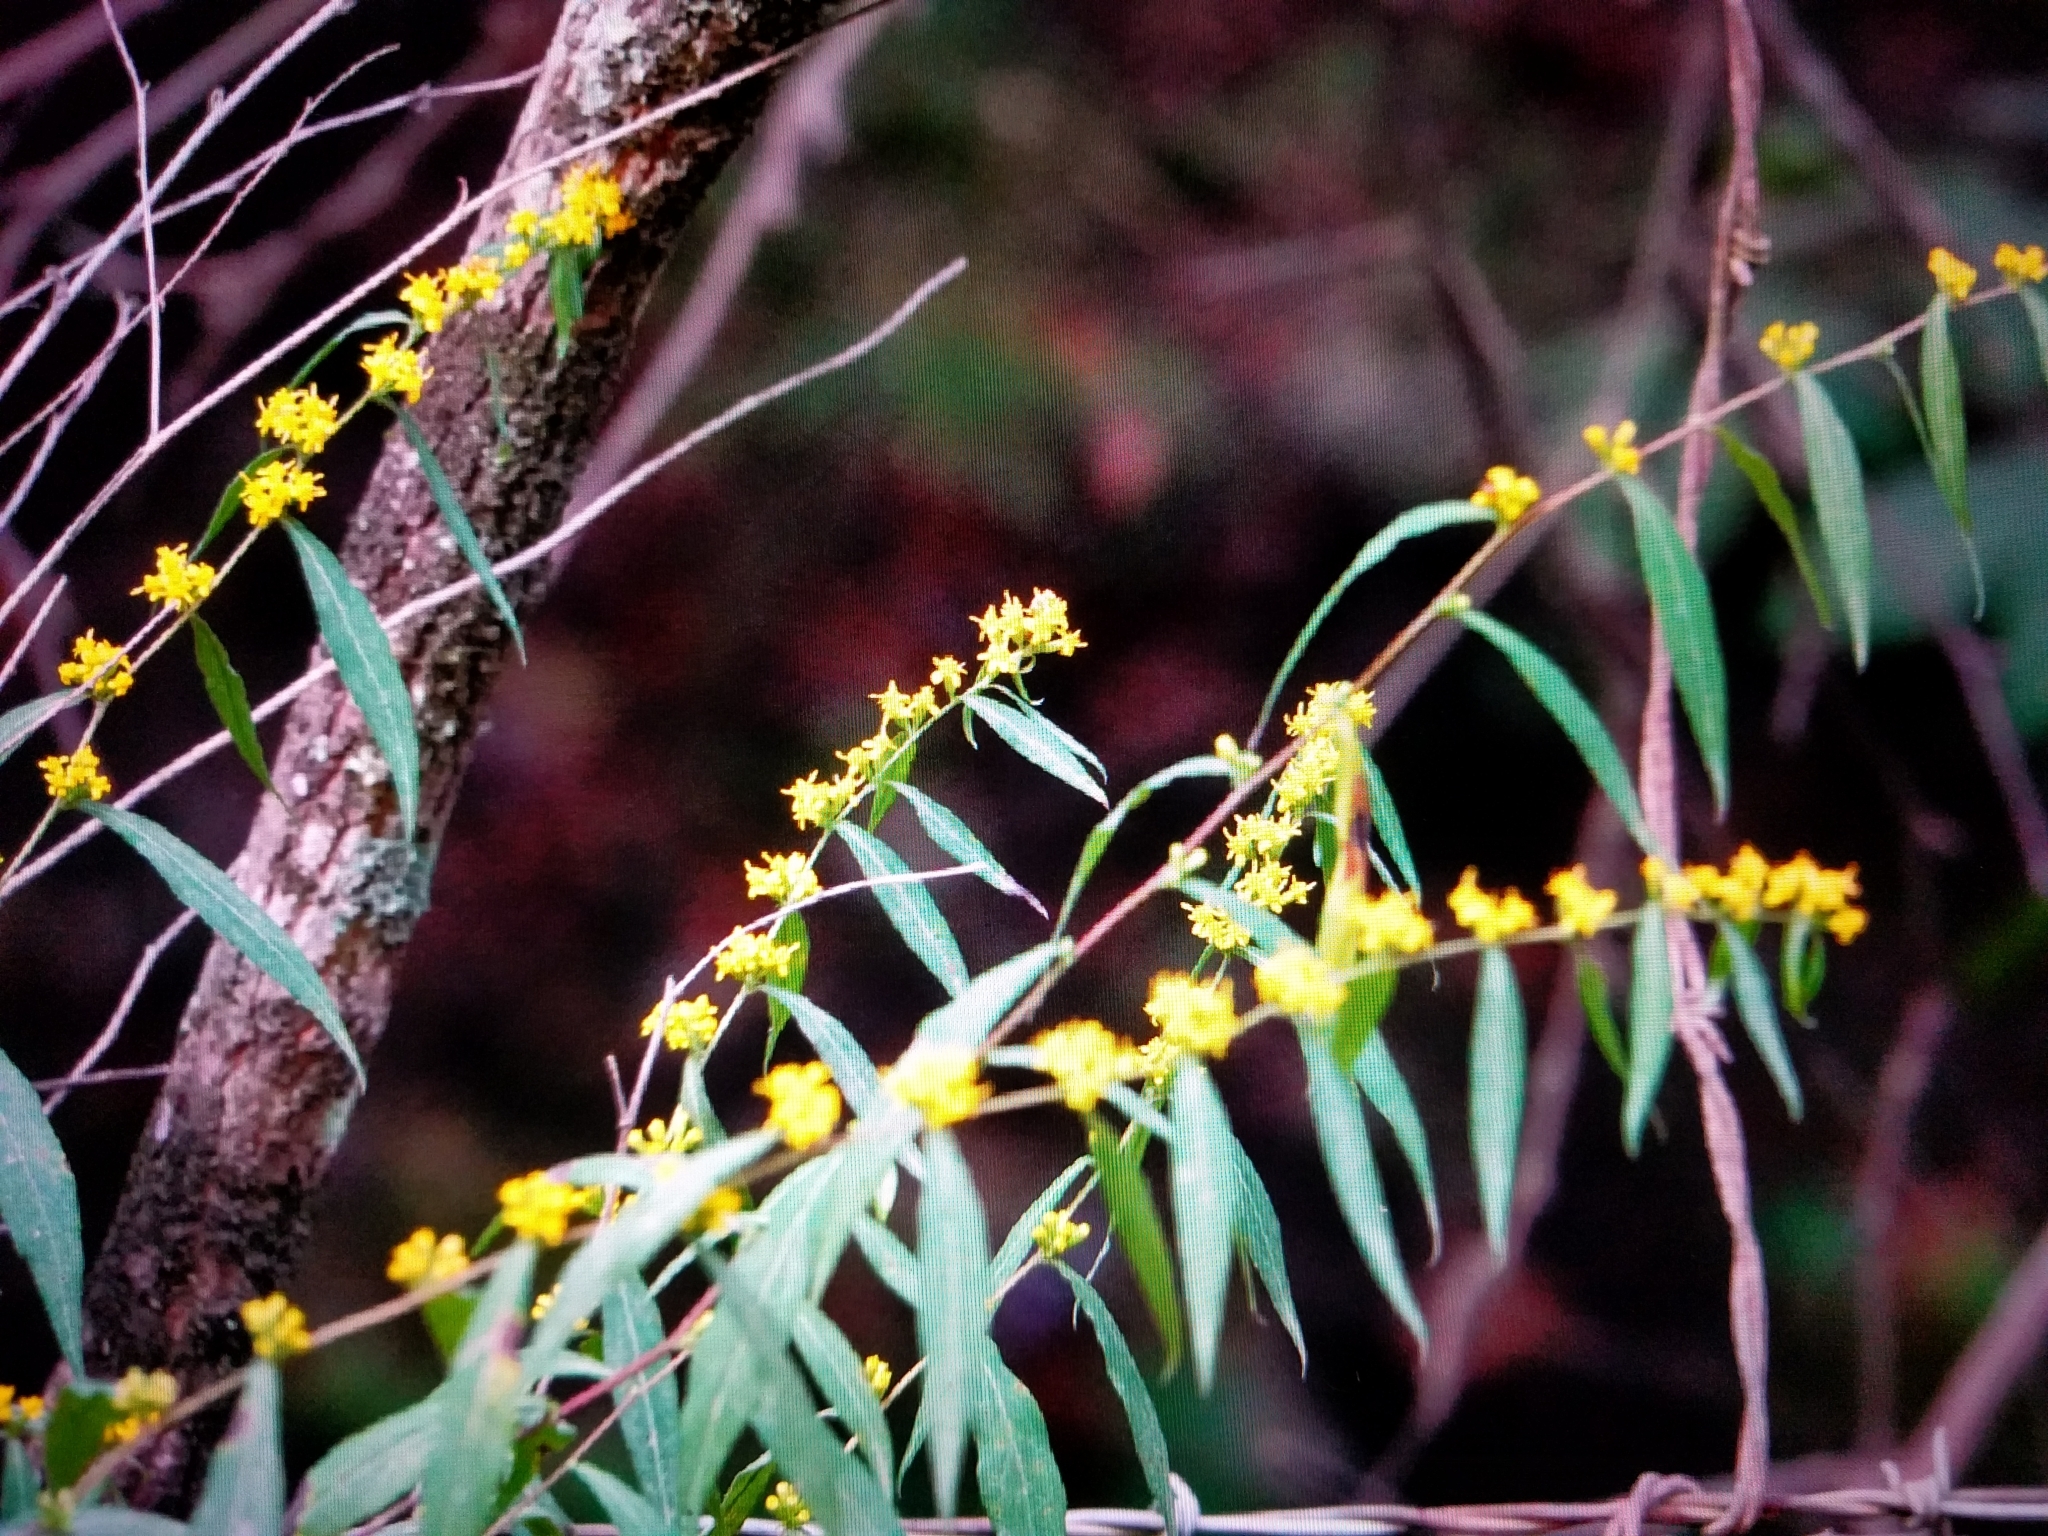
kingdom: Plantae
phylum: Tracheophyta
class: Magnoliopsida
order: Asterales
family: Asteraceae
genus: Solidago
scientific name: Solidago caesia
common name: Woodland goldenrod
